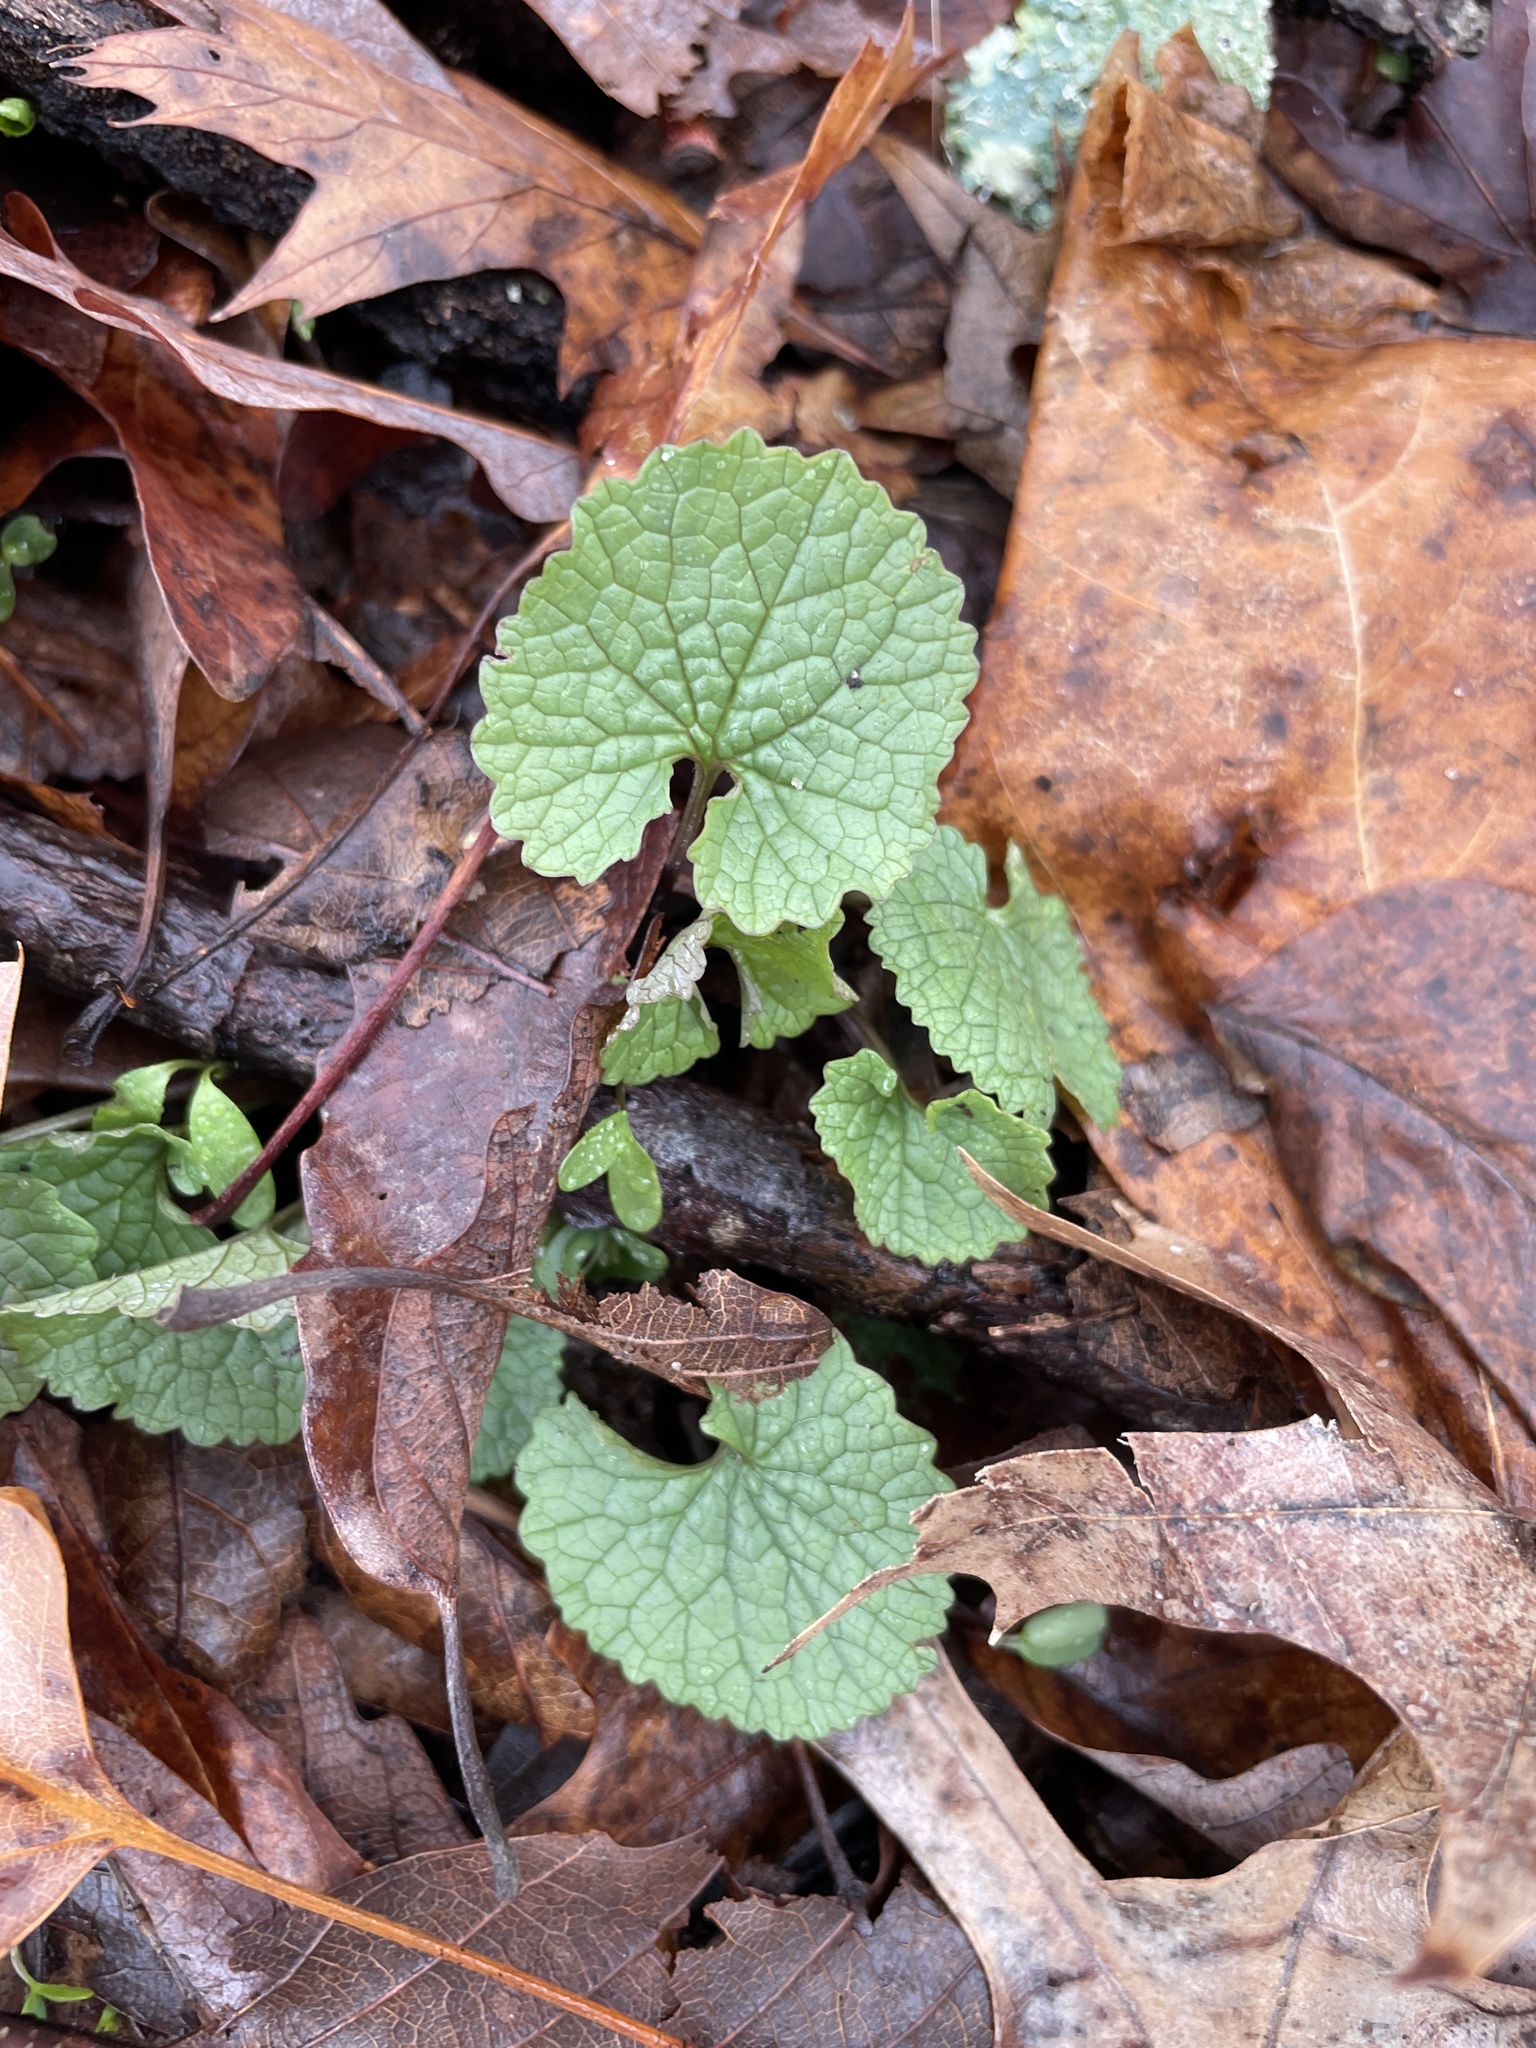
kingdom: Plantae
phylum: Tracheophyta
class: Magnoliopsida
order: Brassicales
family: Brassicaceae
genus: Alliaria
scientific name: Alliaria petiolata
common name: Garlic mustard
